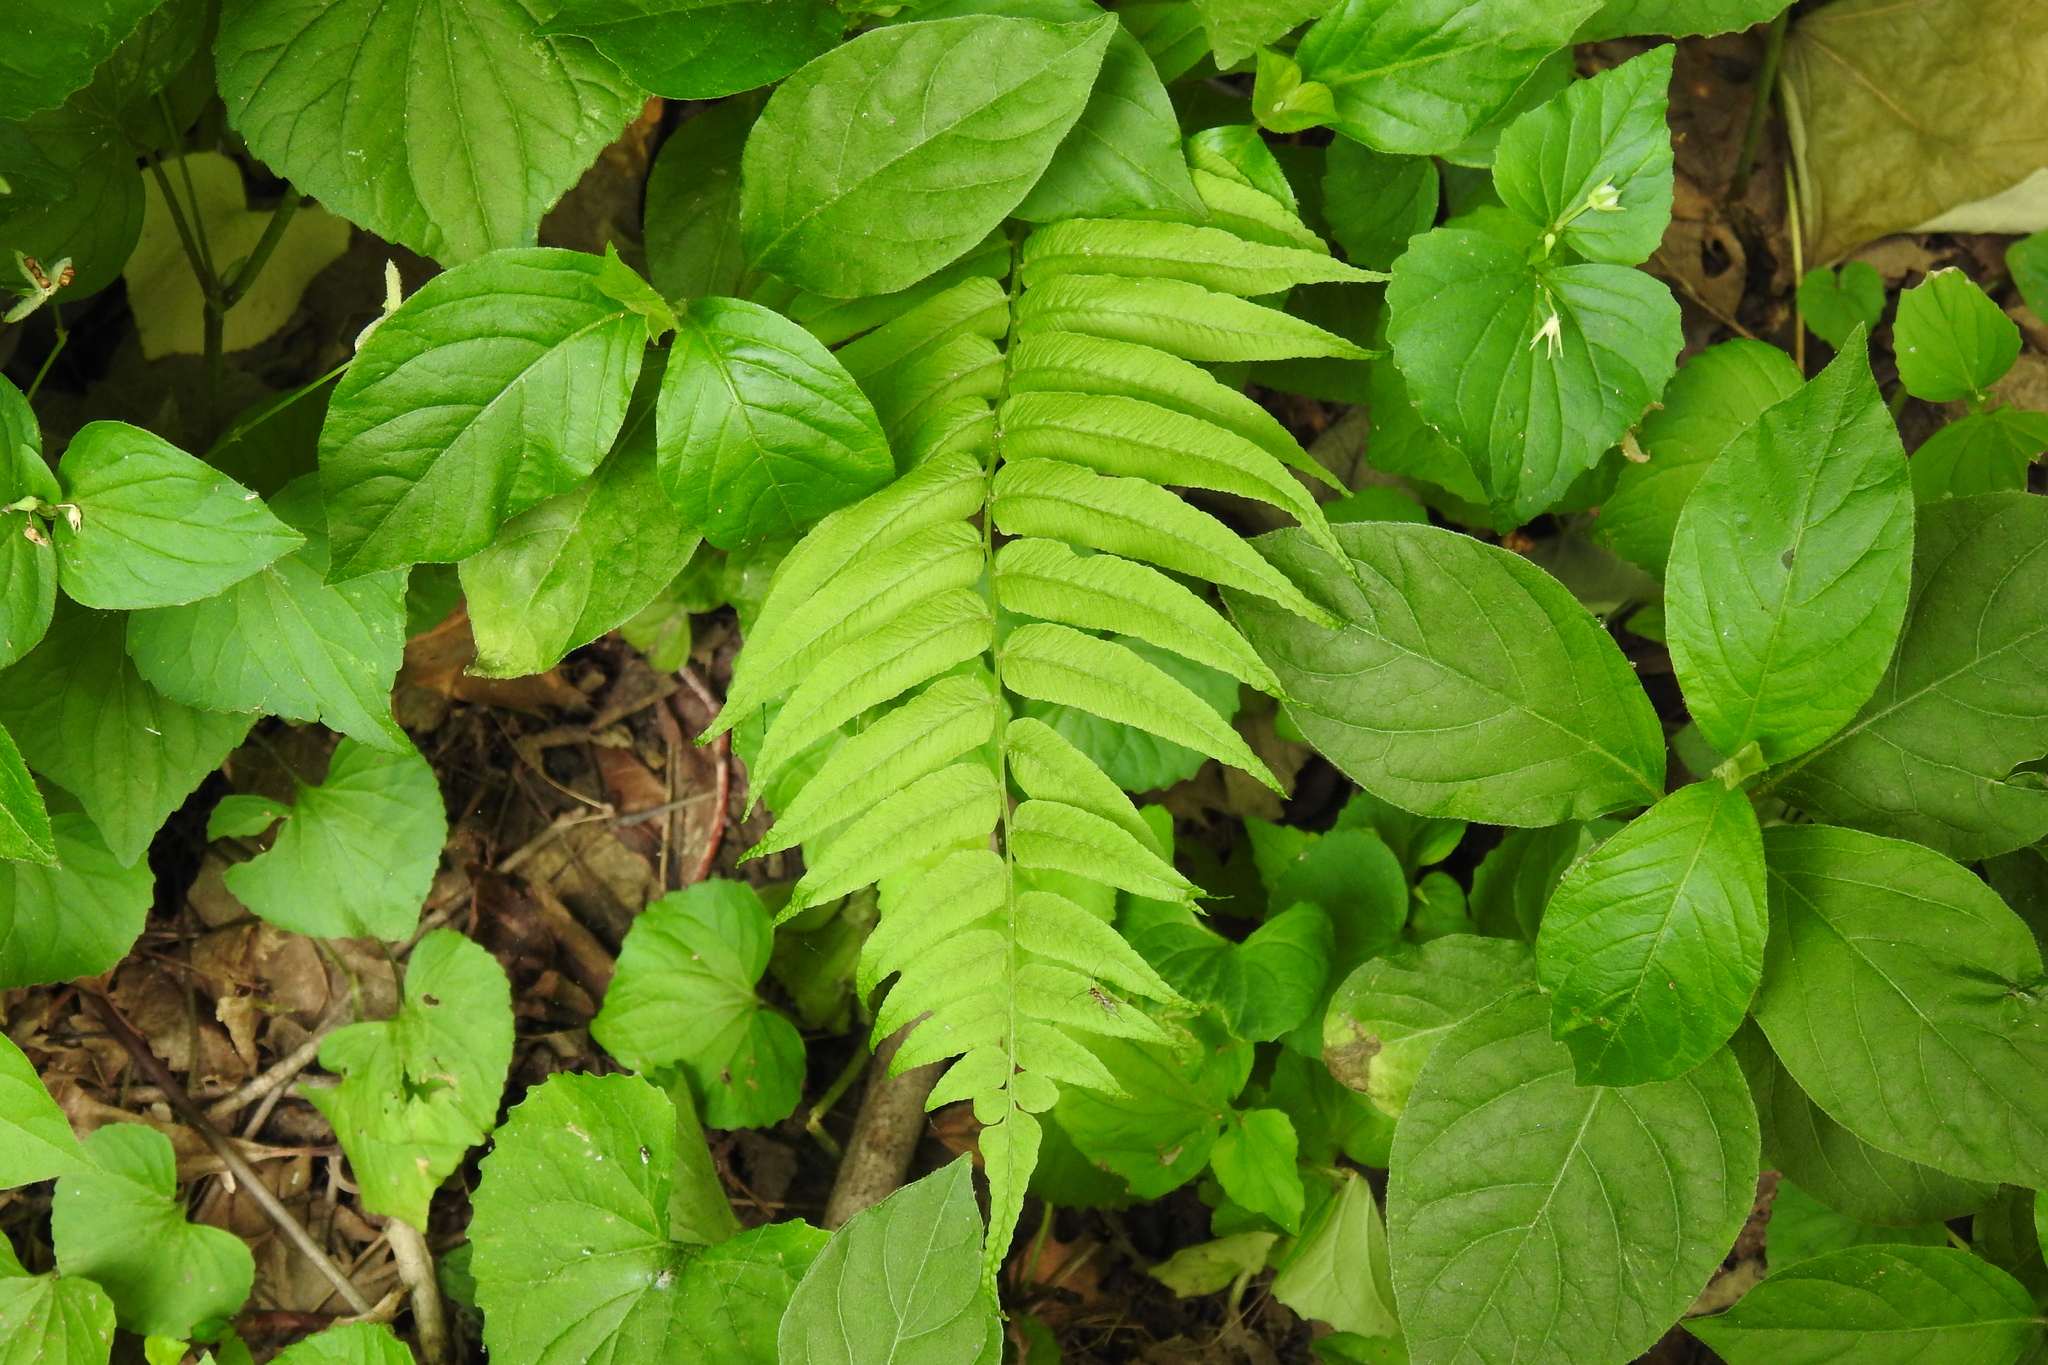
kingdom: Plantae
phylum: Tracheophyta
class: Polypodiopsida
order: Polypodiales
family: Diplaziopsidaceae
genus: Homalosorus
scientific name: Homalosorus pycnocarpos
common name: Glade fern
